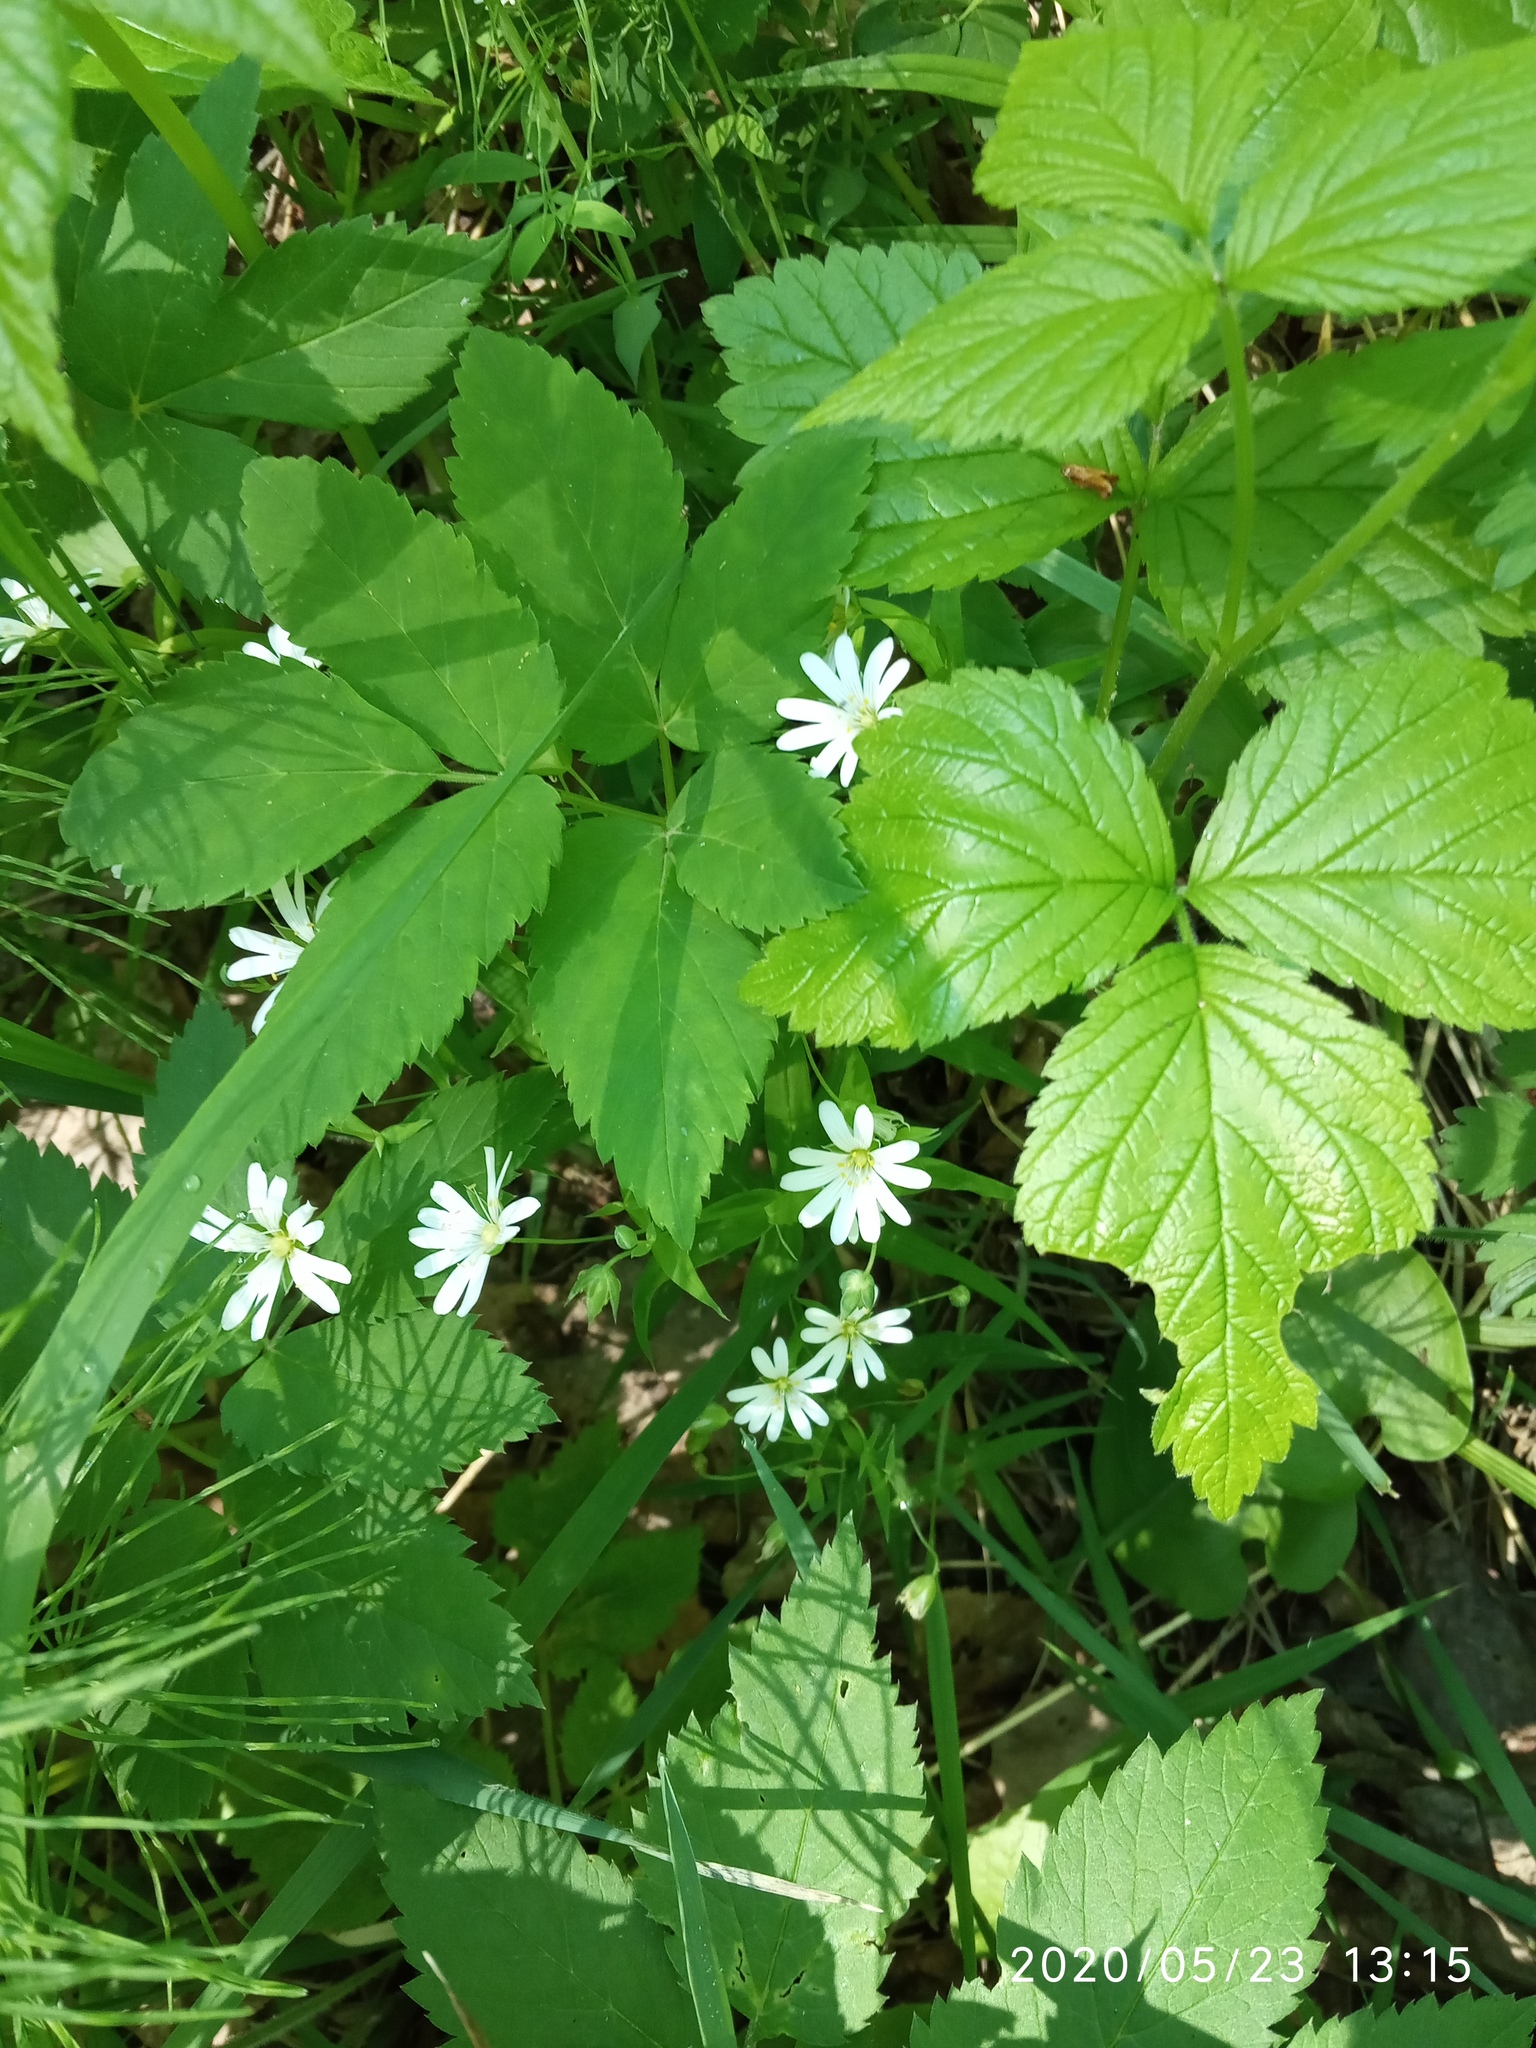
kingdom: Plantae
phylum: Tracheophyta
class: Magnoliopsida
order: Caryophyllales
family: Caryophyllaceae
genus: Rabelera
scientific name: Rabelera holostea
